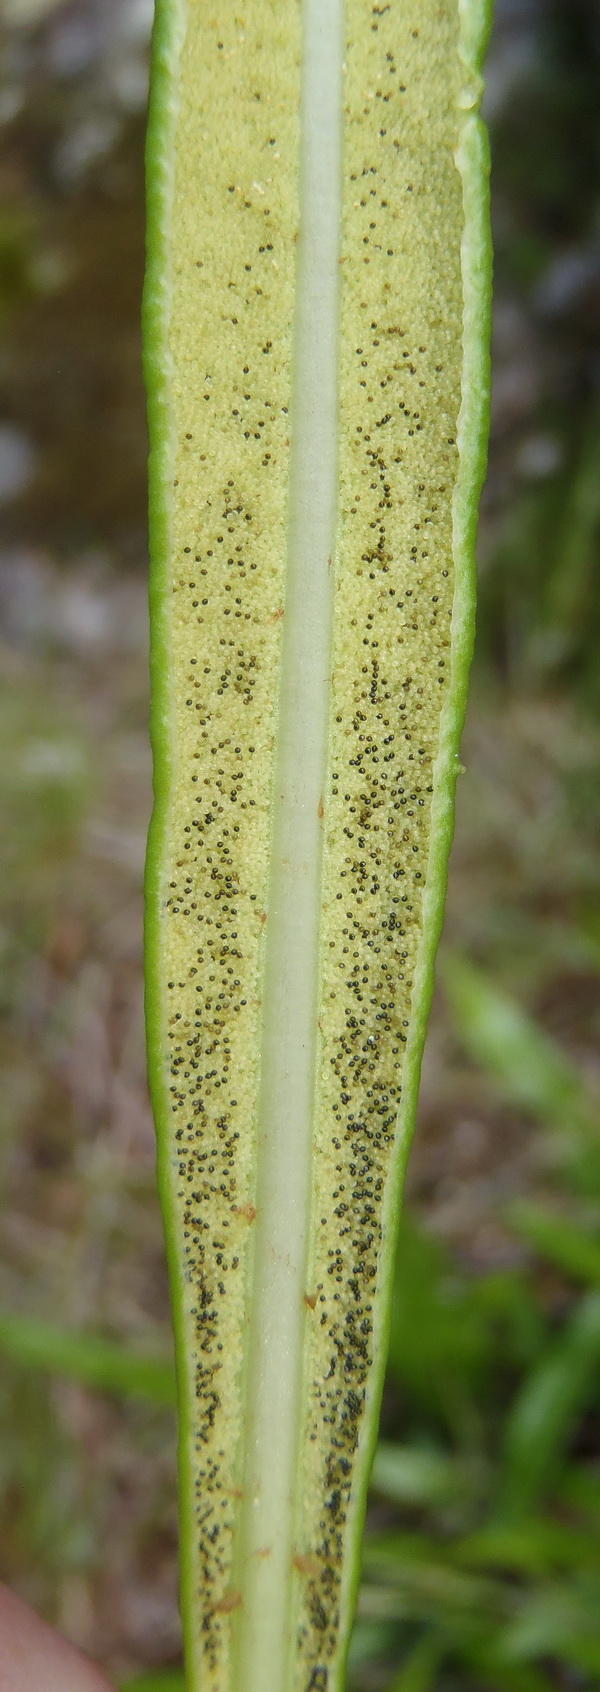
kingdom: Plantae
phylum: Tracheophyta
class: Polypodiopsida
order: Polypodiales
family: Dryopteridaceae
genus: Elaphoglossum
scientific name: Elaphoglossum acrostichoides
